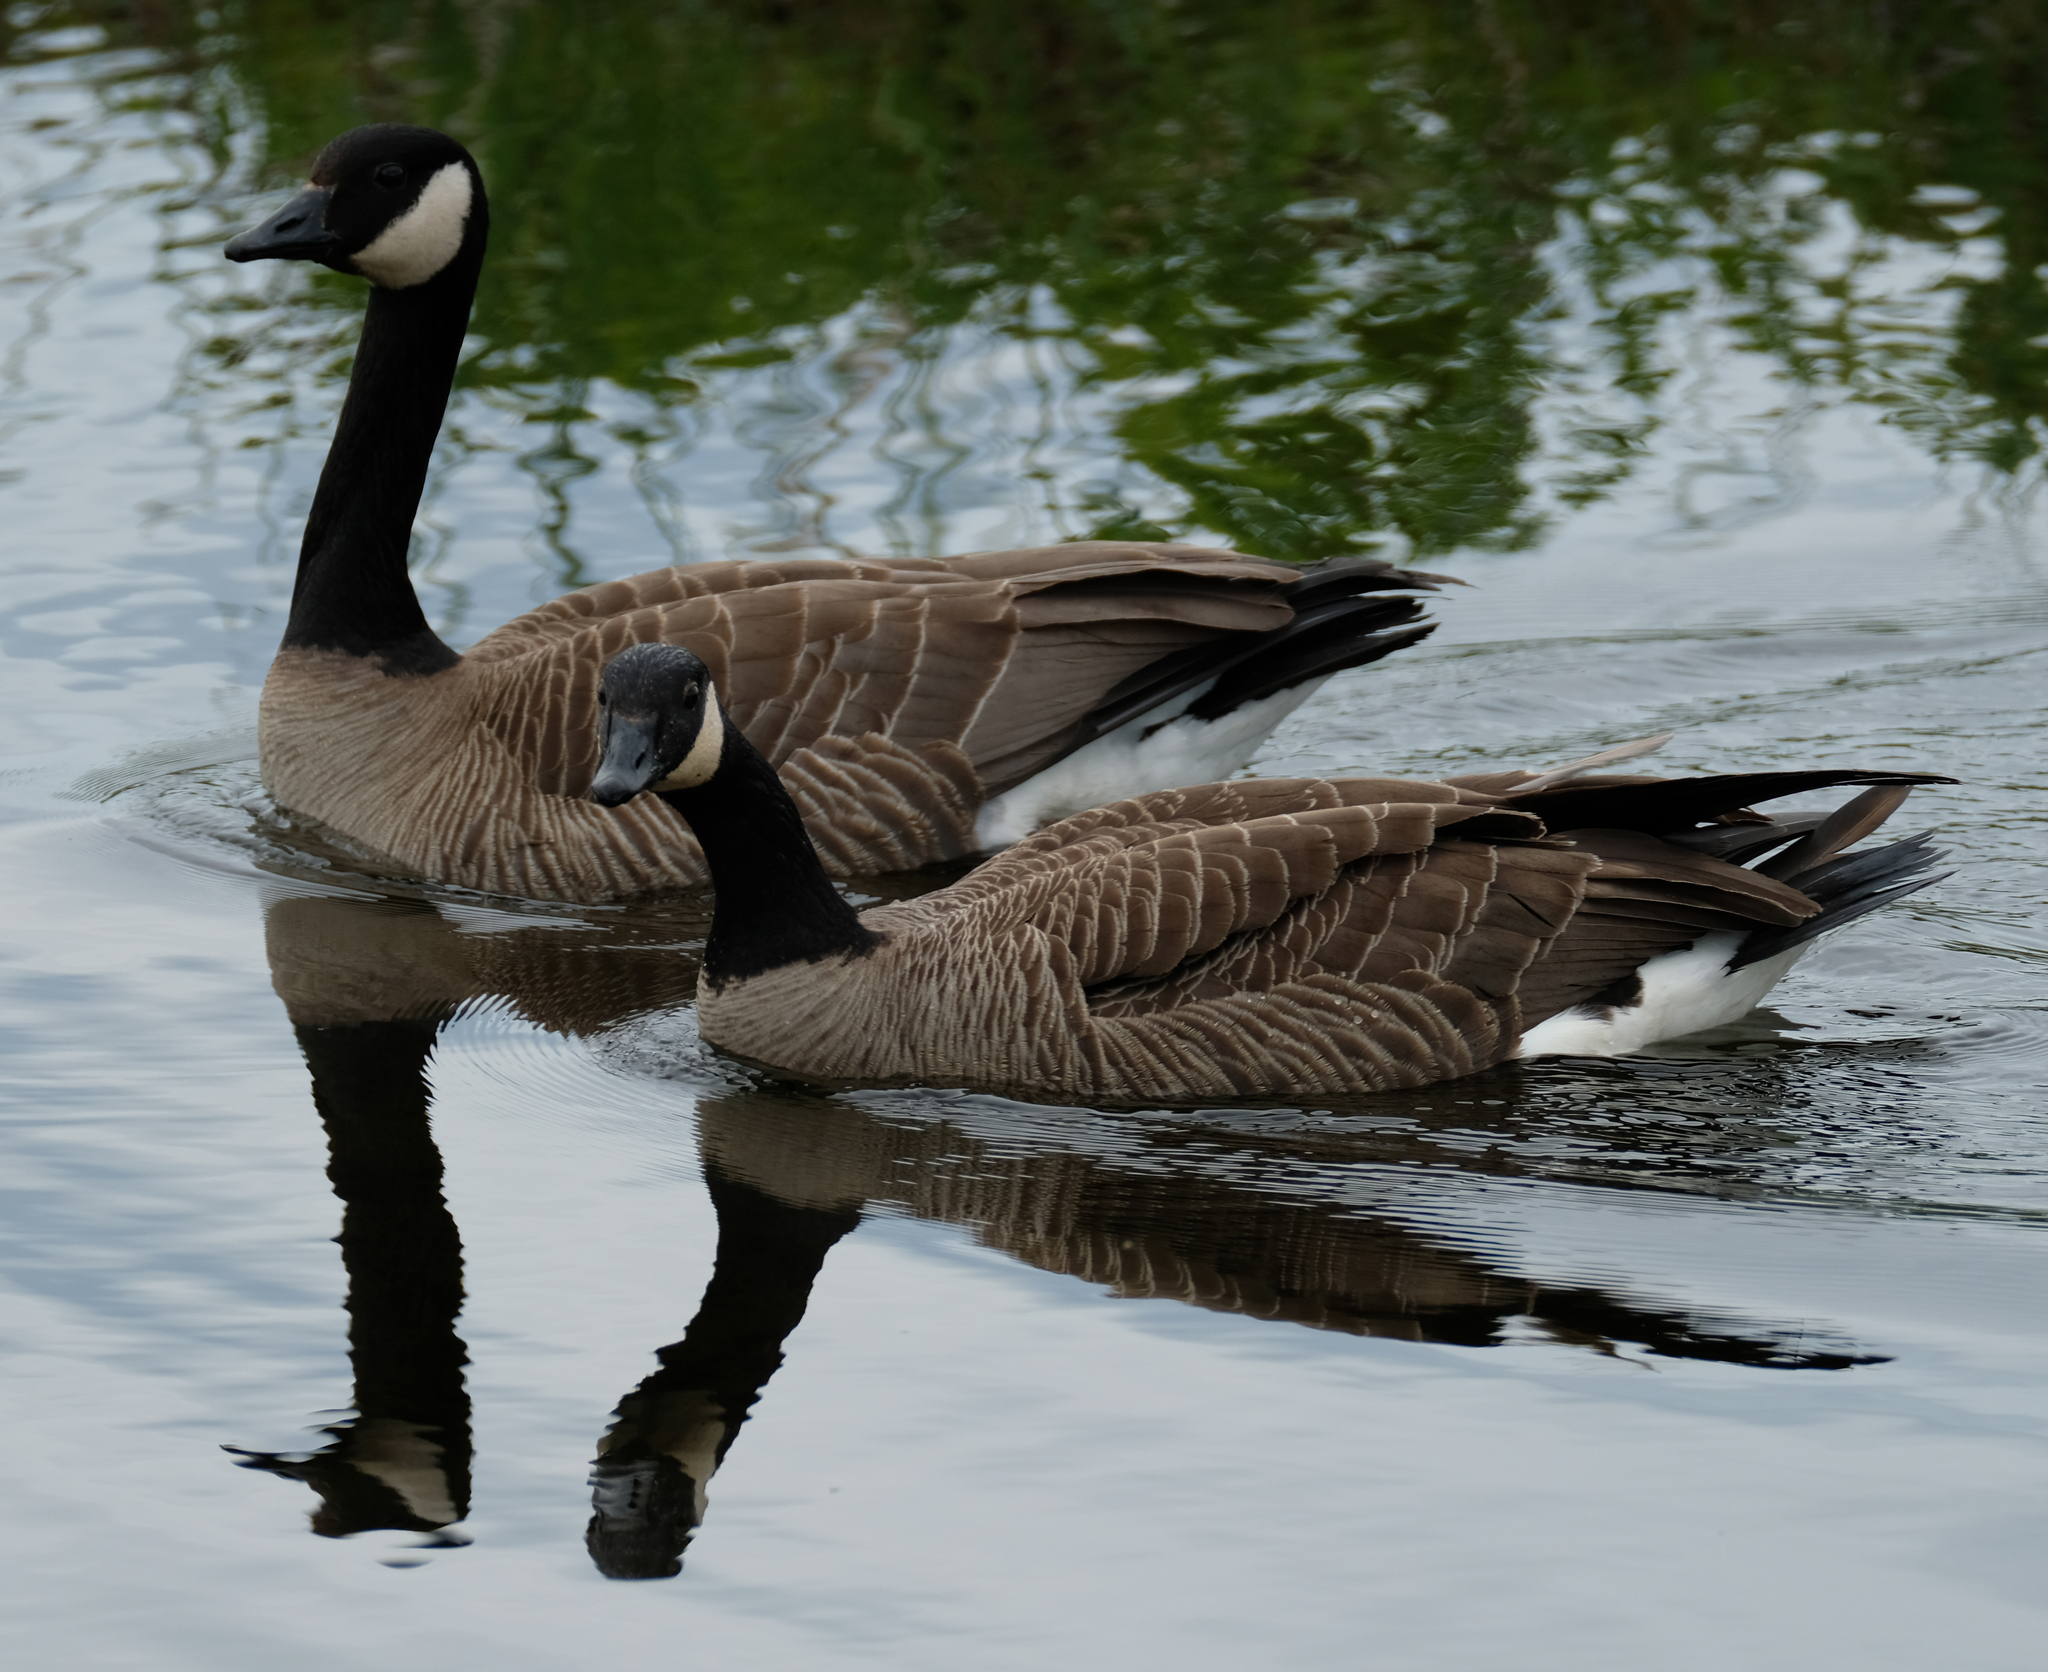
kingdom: Animalia
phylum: Chordata
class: Aves
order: Anseriformes
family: Anatidae
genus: Branta
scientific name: Branta canadensis
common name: Canada goose
